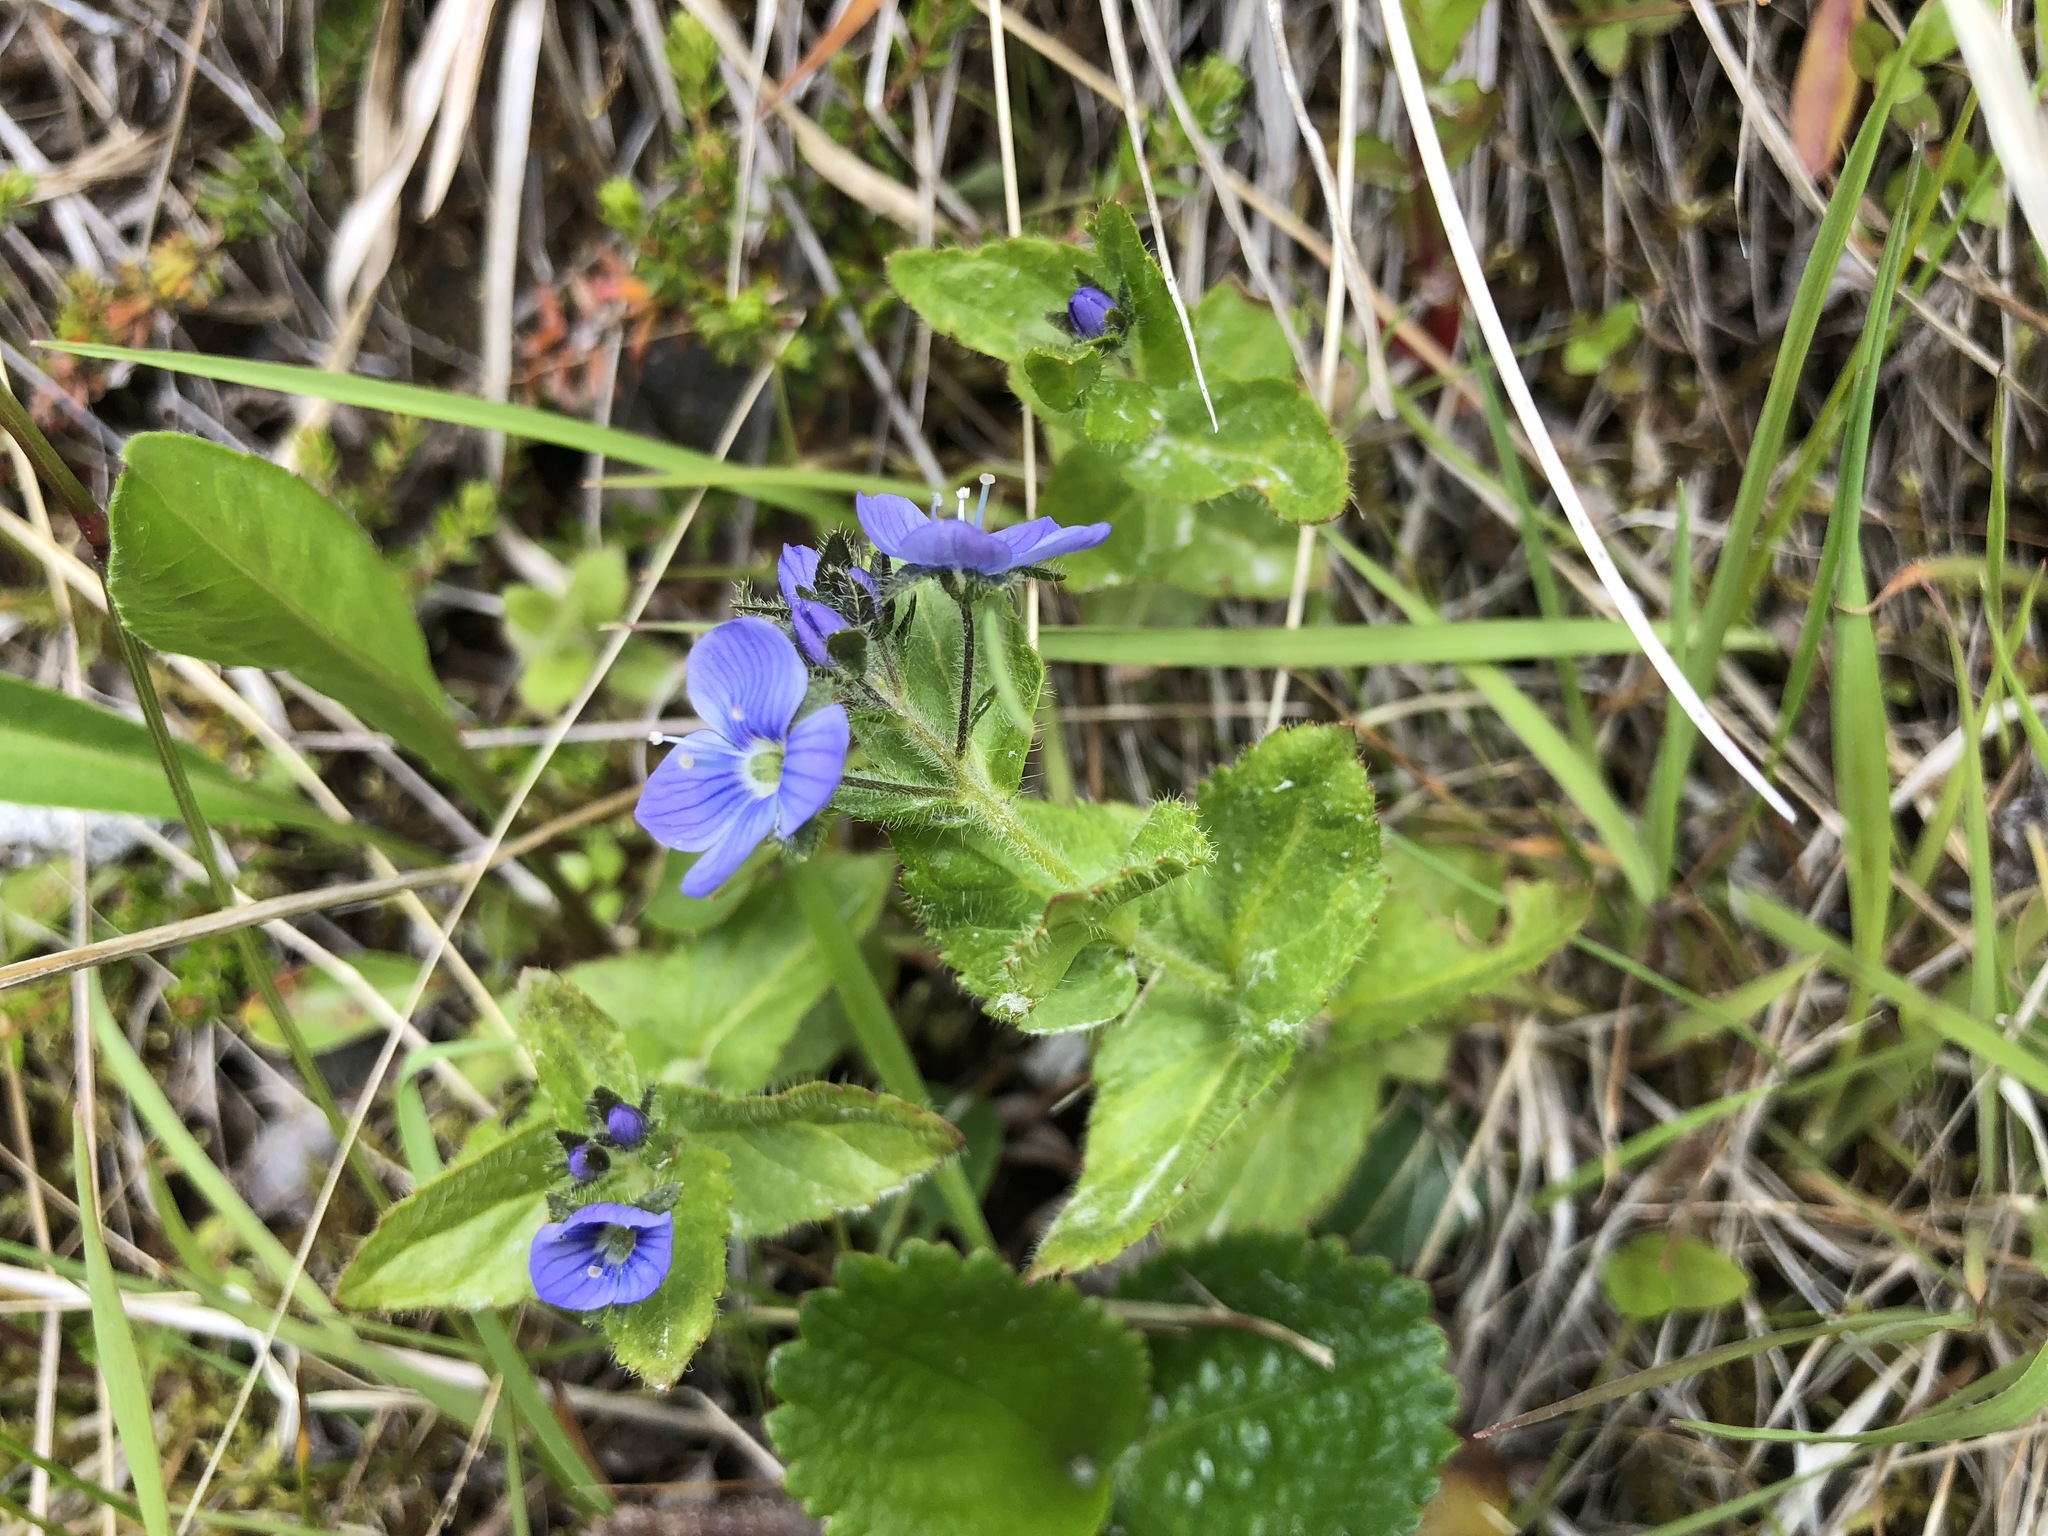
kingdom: Plantae
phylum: Tracheophyta
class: Magnoliopsida
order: Lamiales
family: Plantaginaceae
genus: Veronica
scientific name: Veronica stelleri
